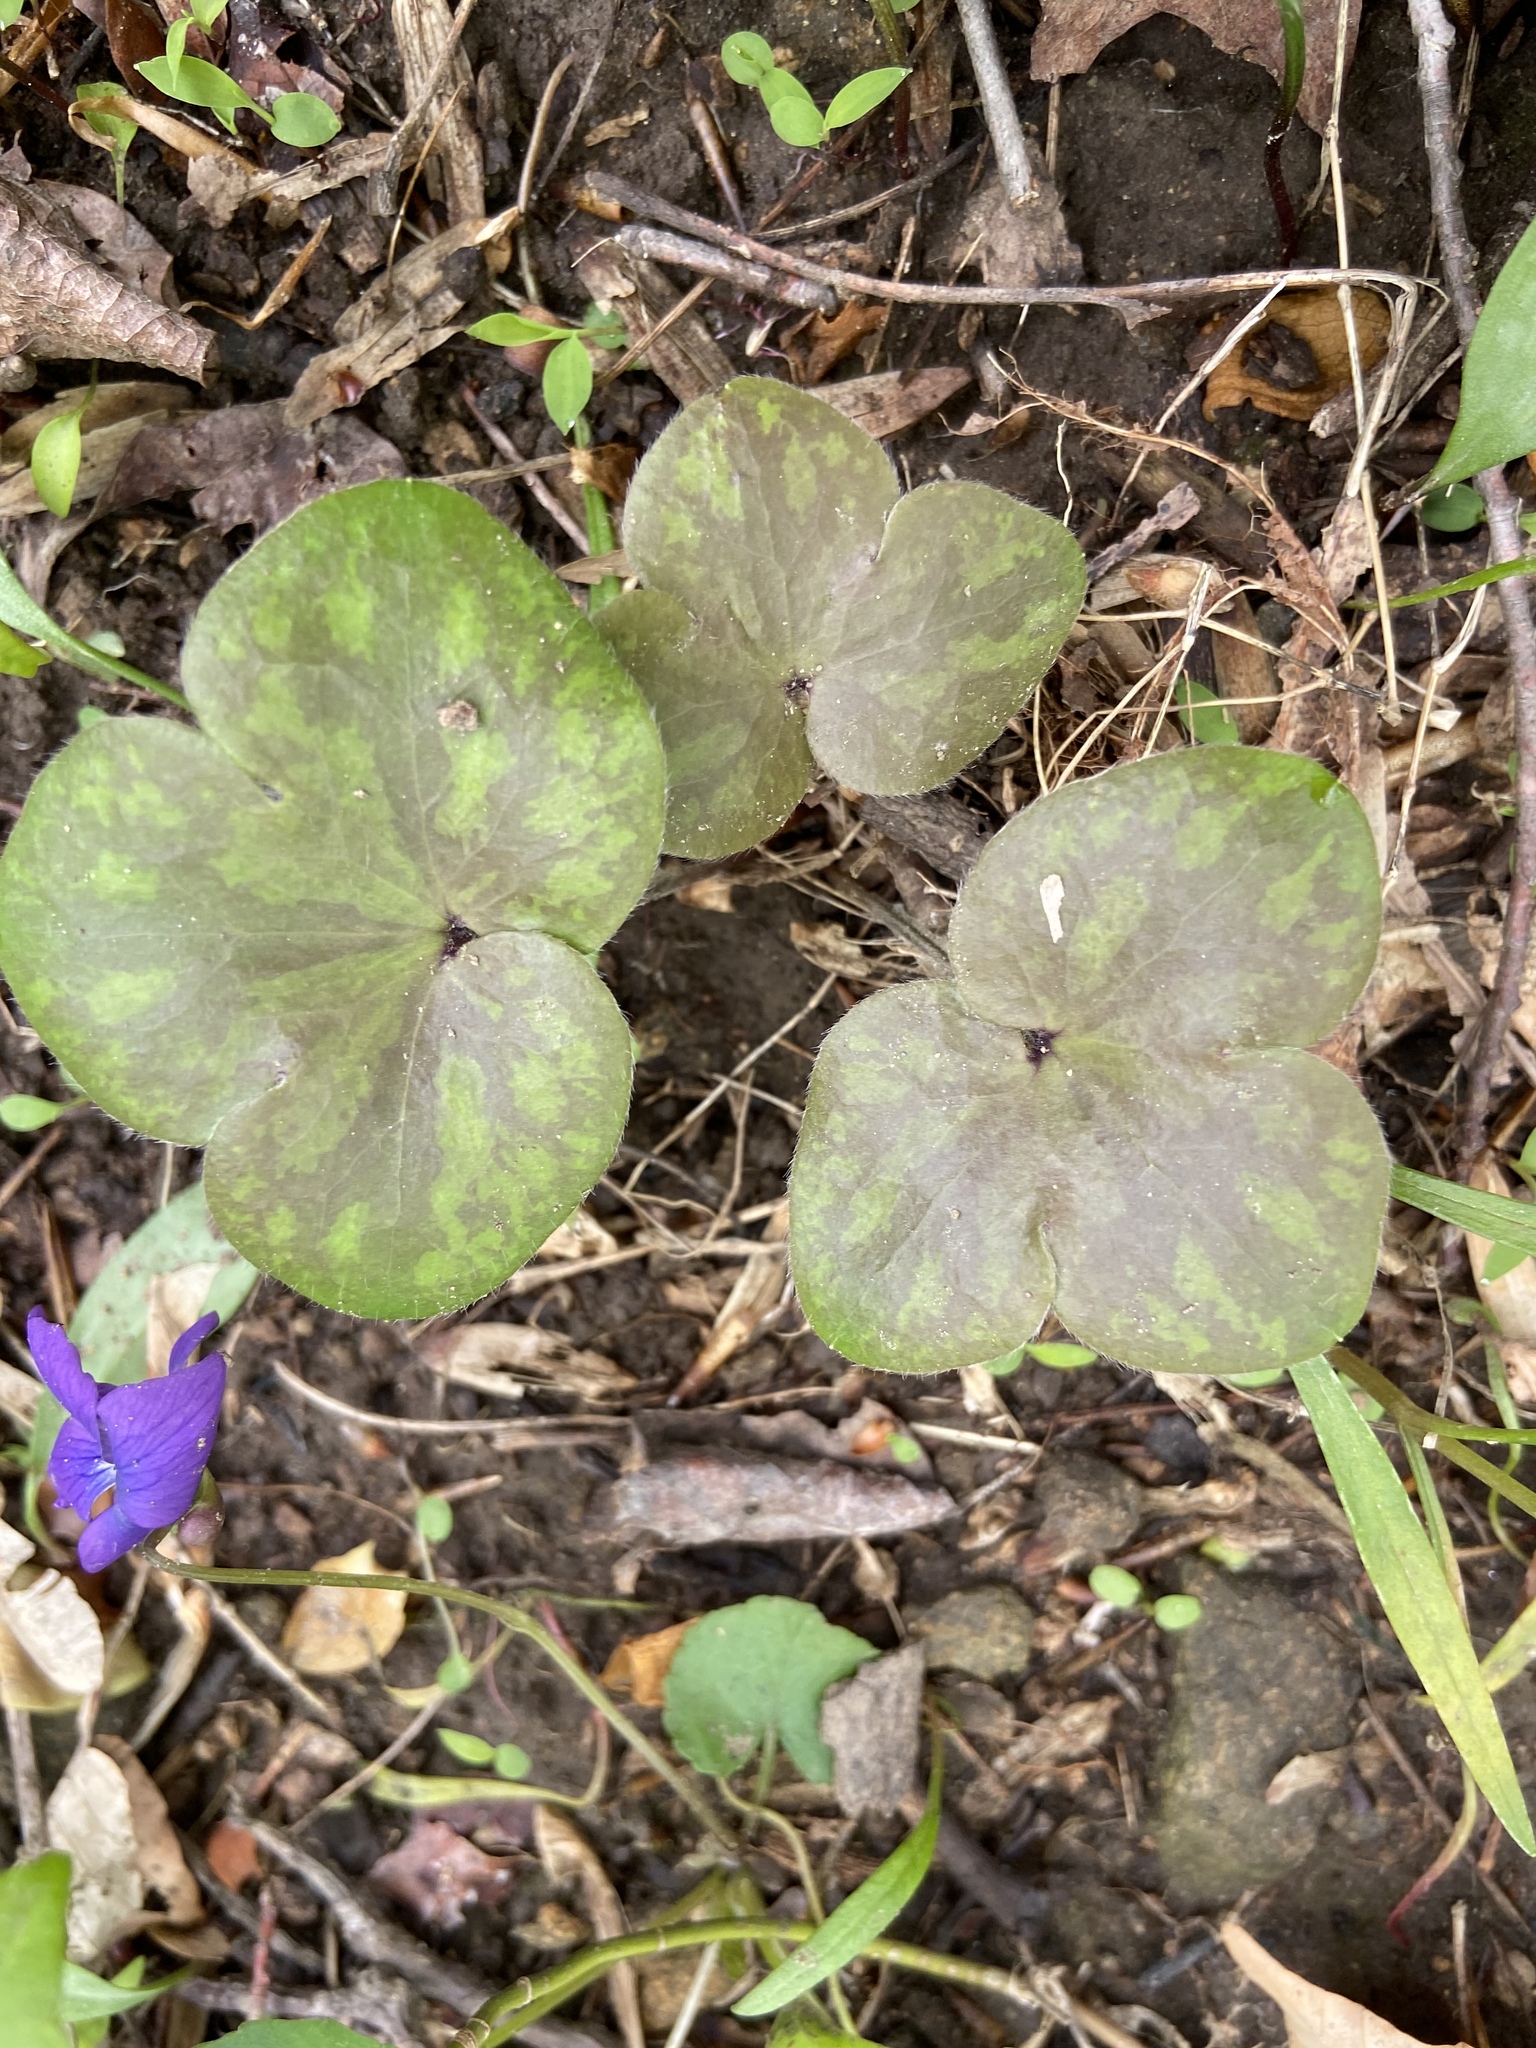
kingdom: Plantae
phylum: Tracheophyta
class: Magnoliopsida
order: Ranunculales
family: Ranunculaceae
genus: Hepatica
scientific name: Hepatica americana
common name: American hepatica
